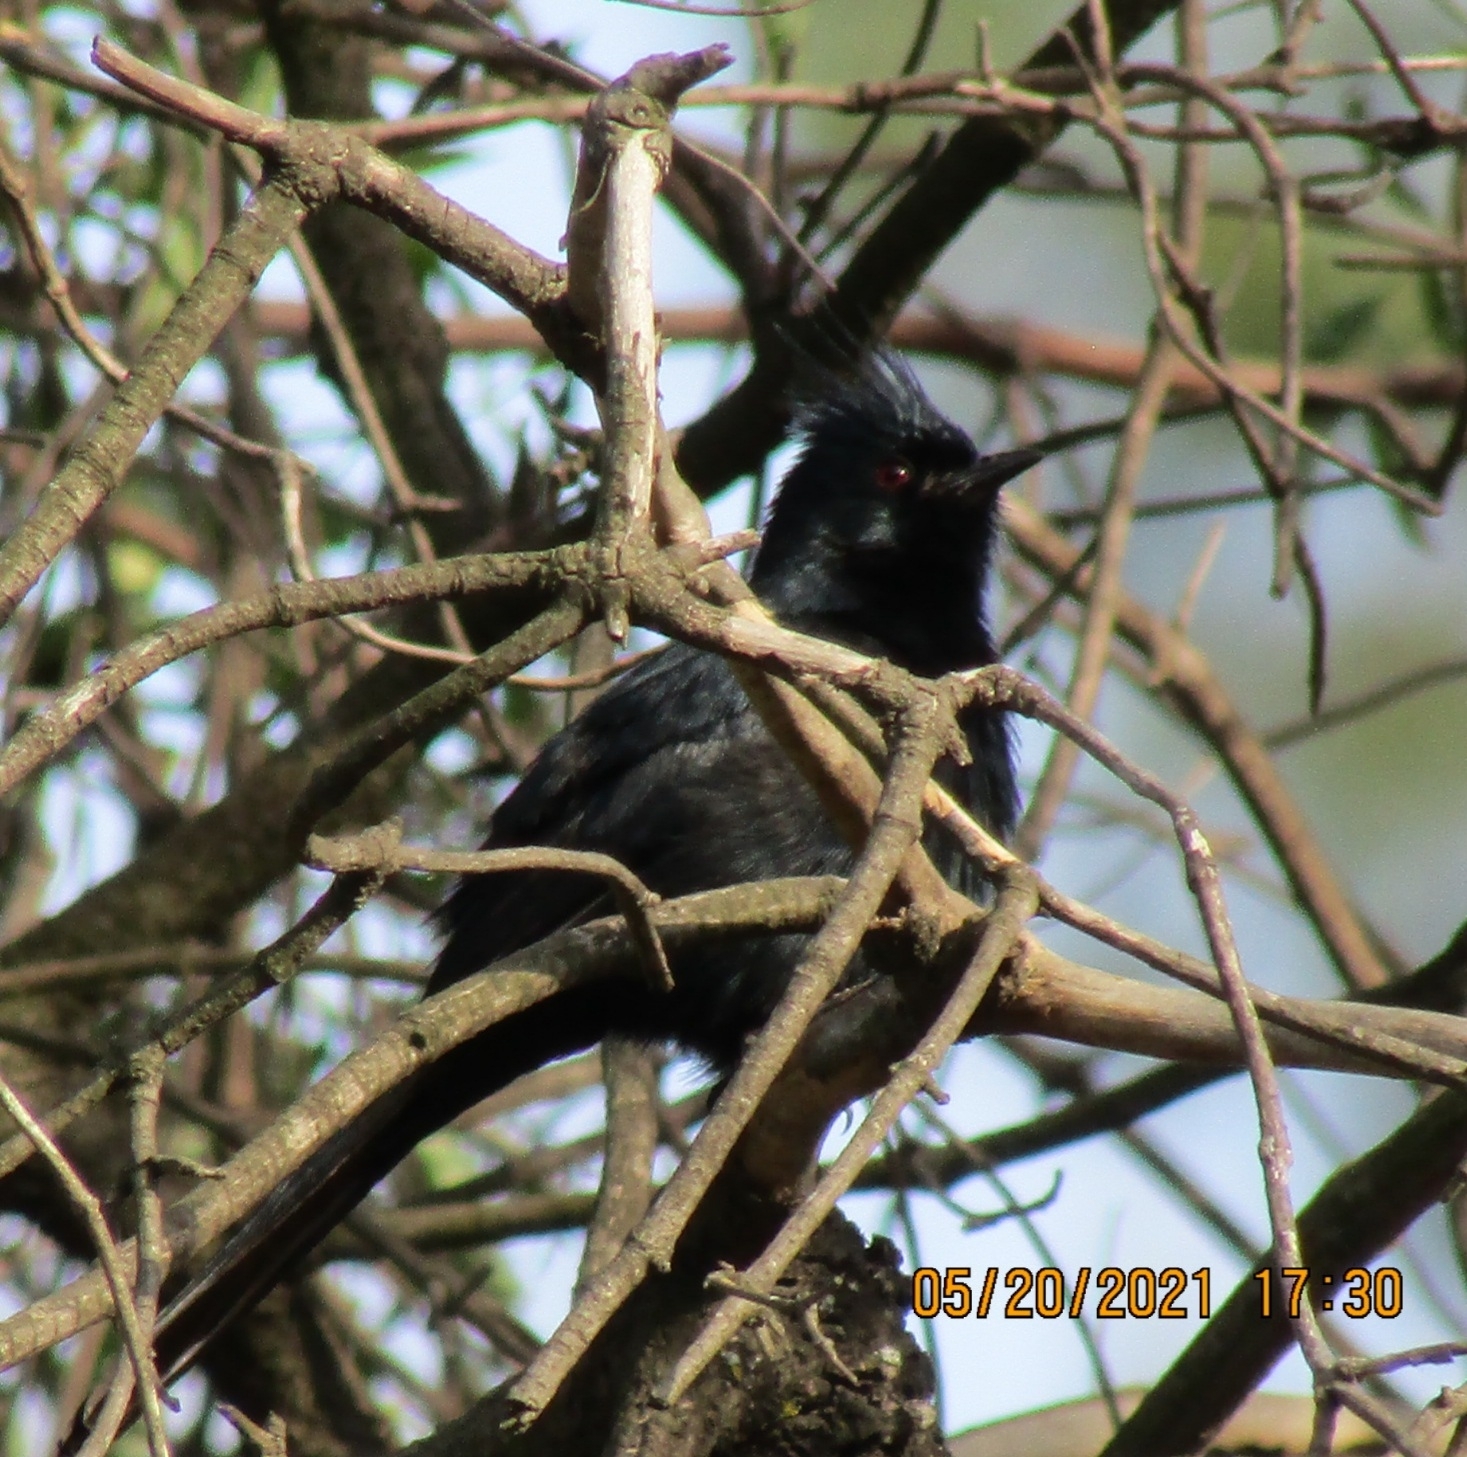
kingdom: Animalia
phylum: Chordata
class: Aves
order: Passeriformes
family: Ptilogonatidae
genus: Phainopepla
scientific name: Phainopepla nitens
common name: Phainopepla
